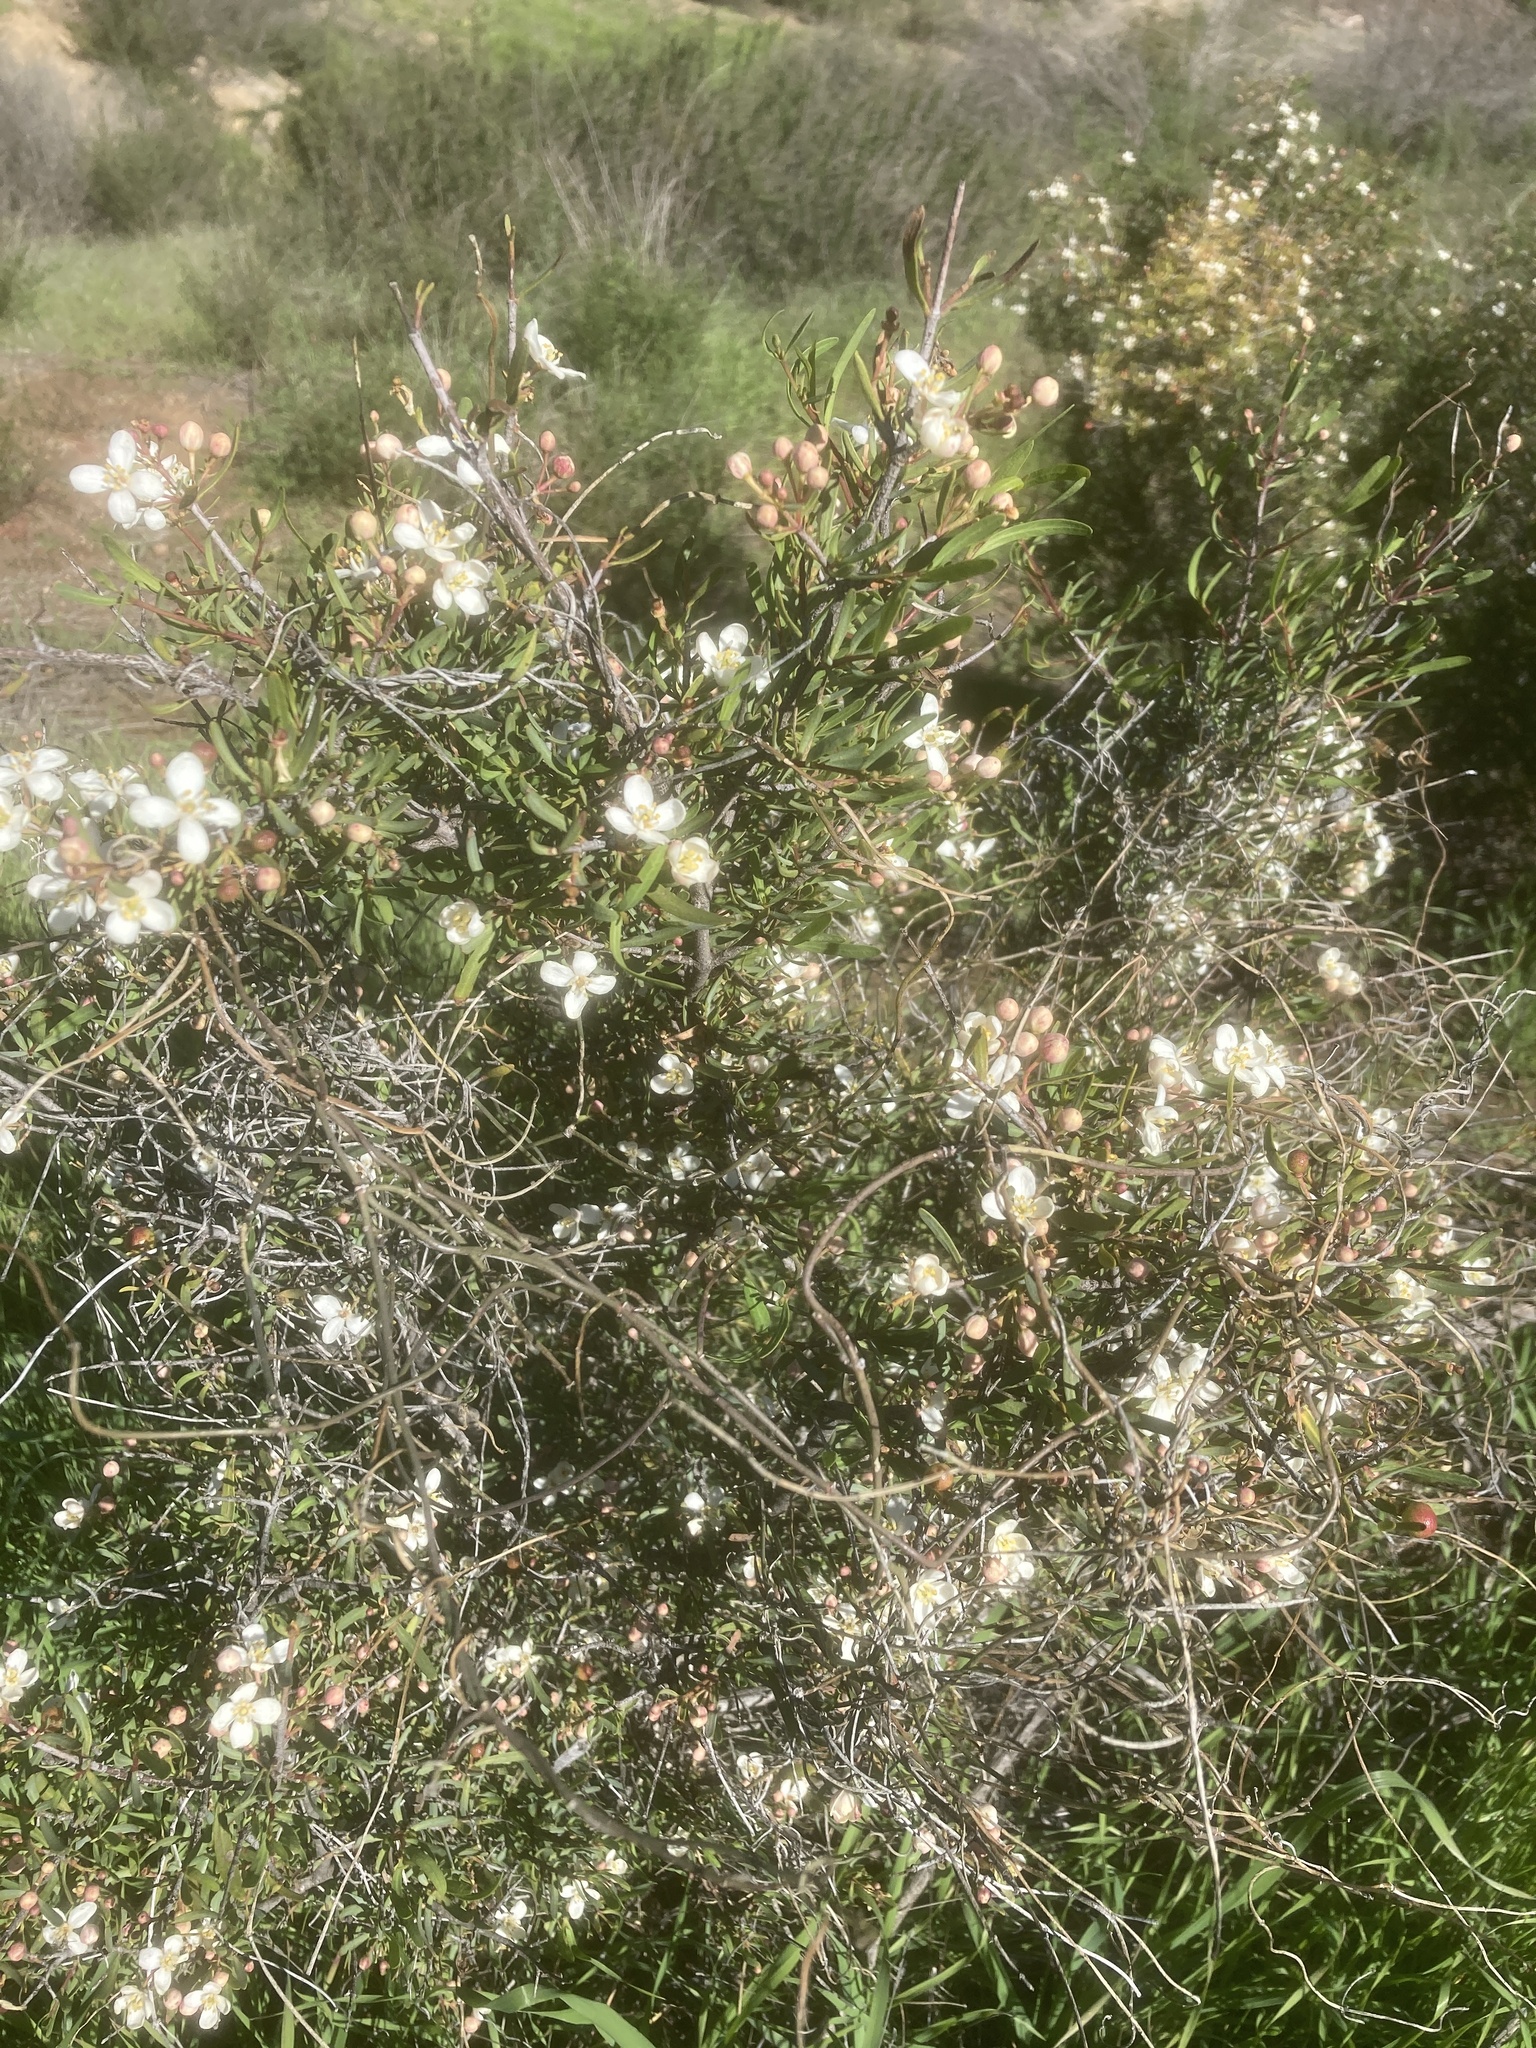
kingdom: Plantae
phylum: Tracheophyta
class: Magnoliopsida
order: Sapindales
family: Rutaceae
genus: Cneoridium
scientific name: Cneoridium dumosum
